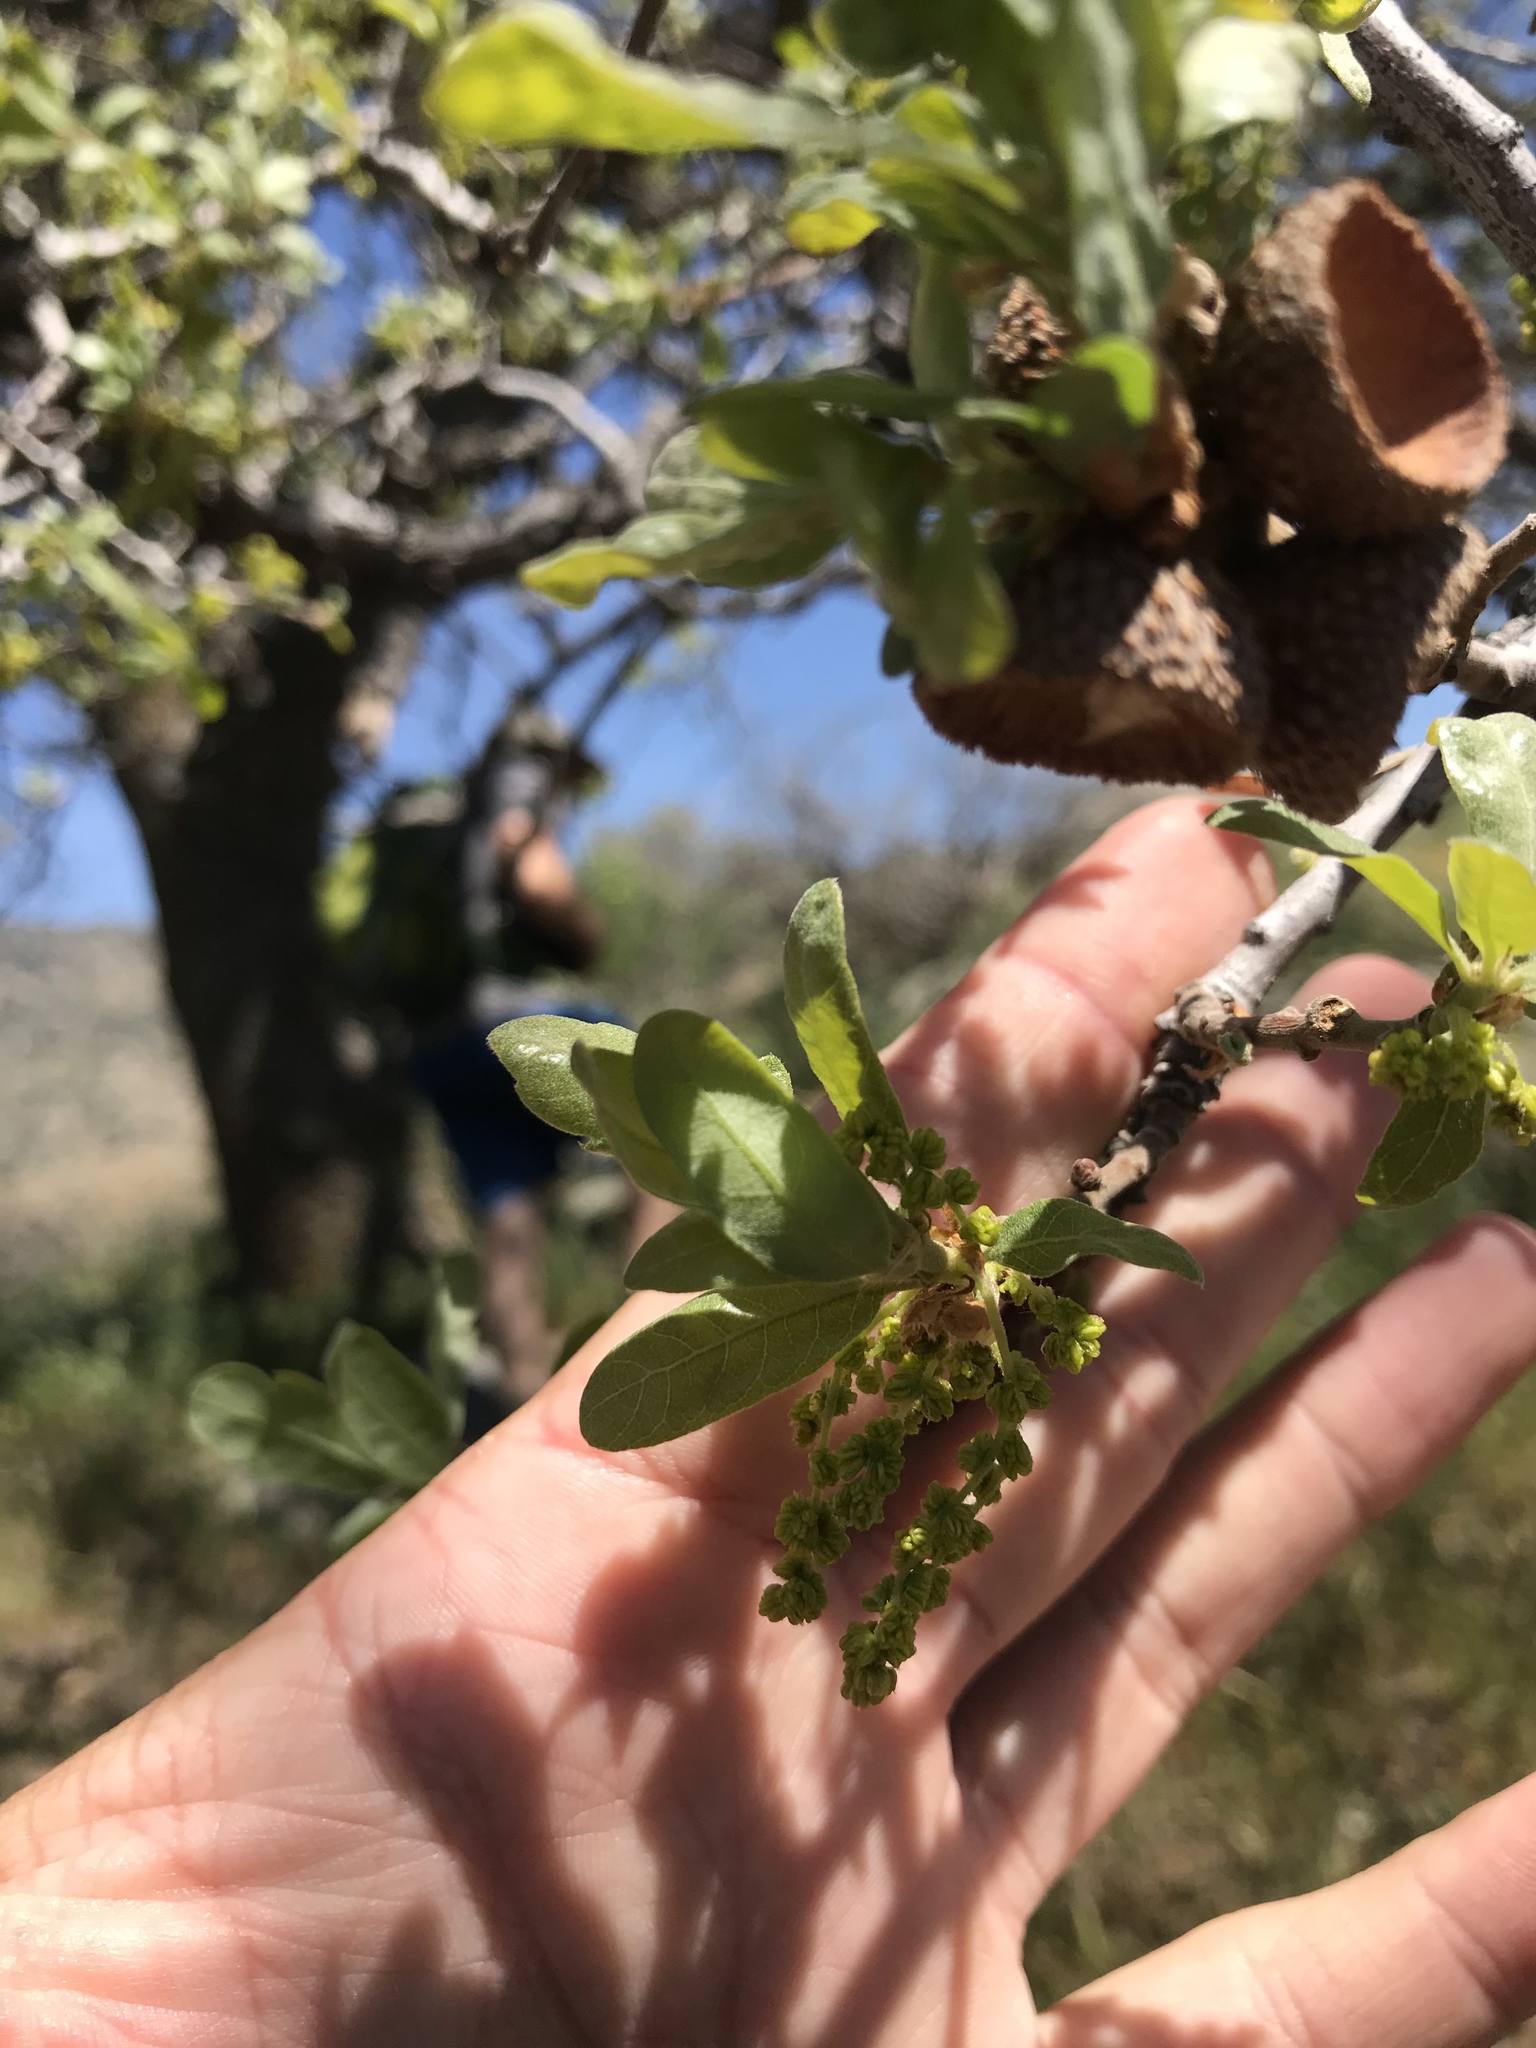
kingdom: Plantae
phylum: Tracheophyta
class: Magnoliopsida
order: Fagales
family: Fagaceae
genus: Quercus
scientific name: Quercus douglasii
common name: Blue oak
